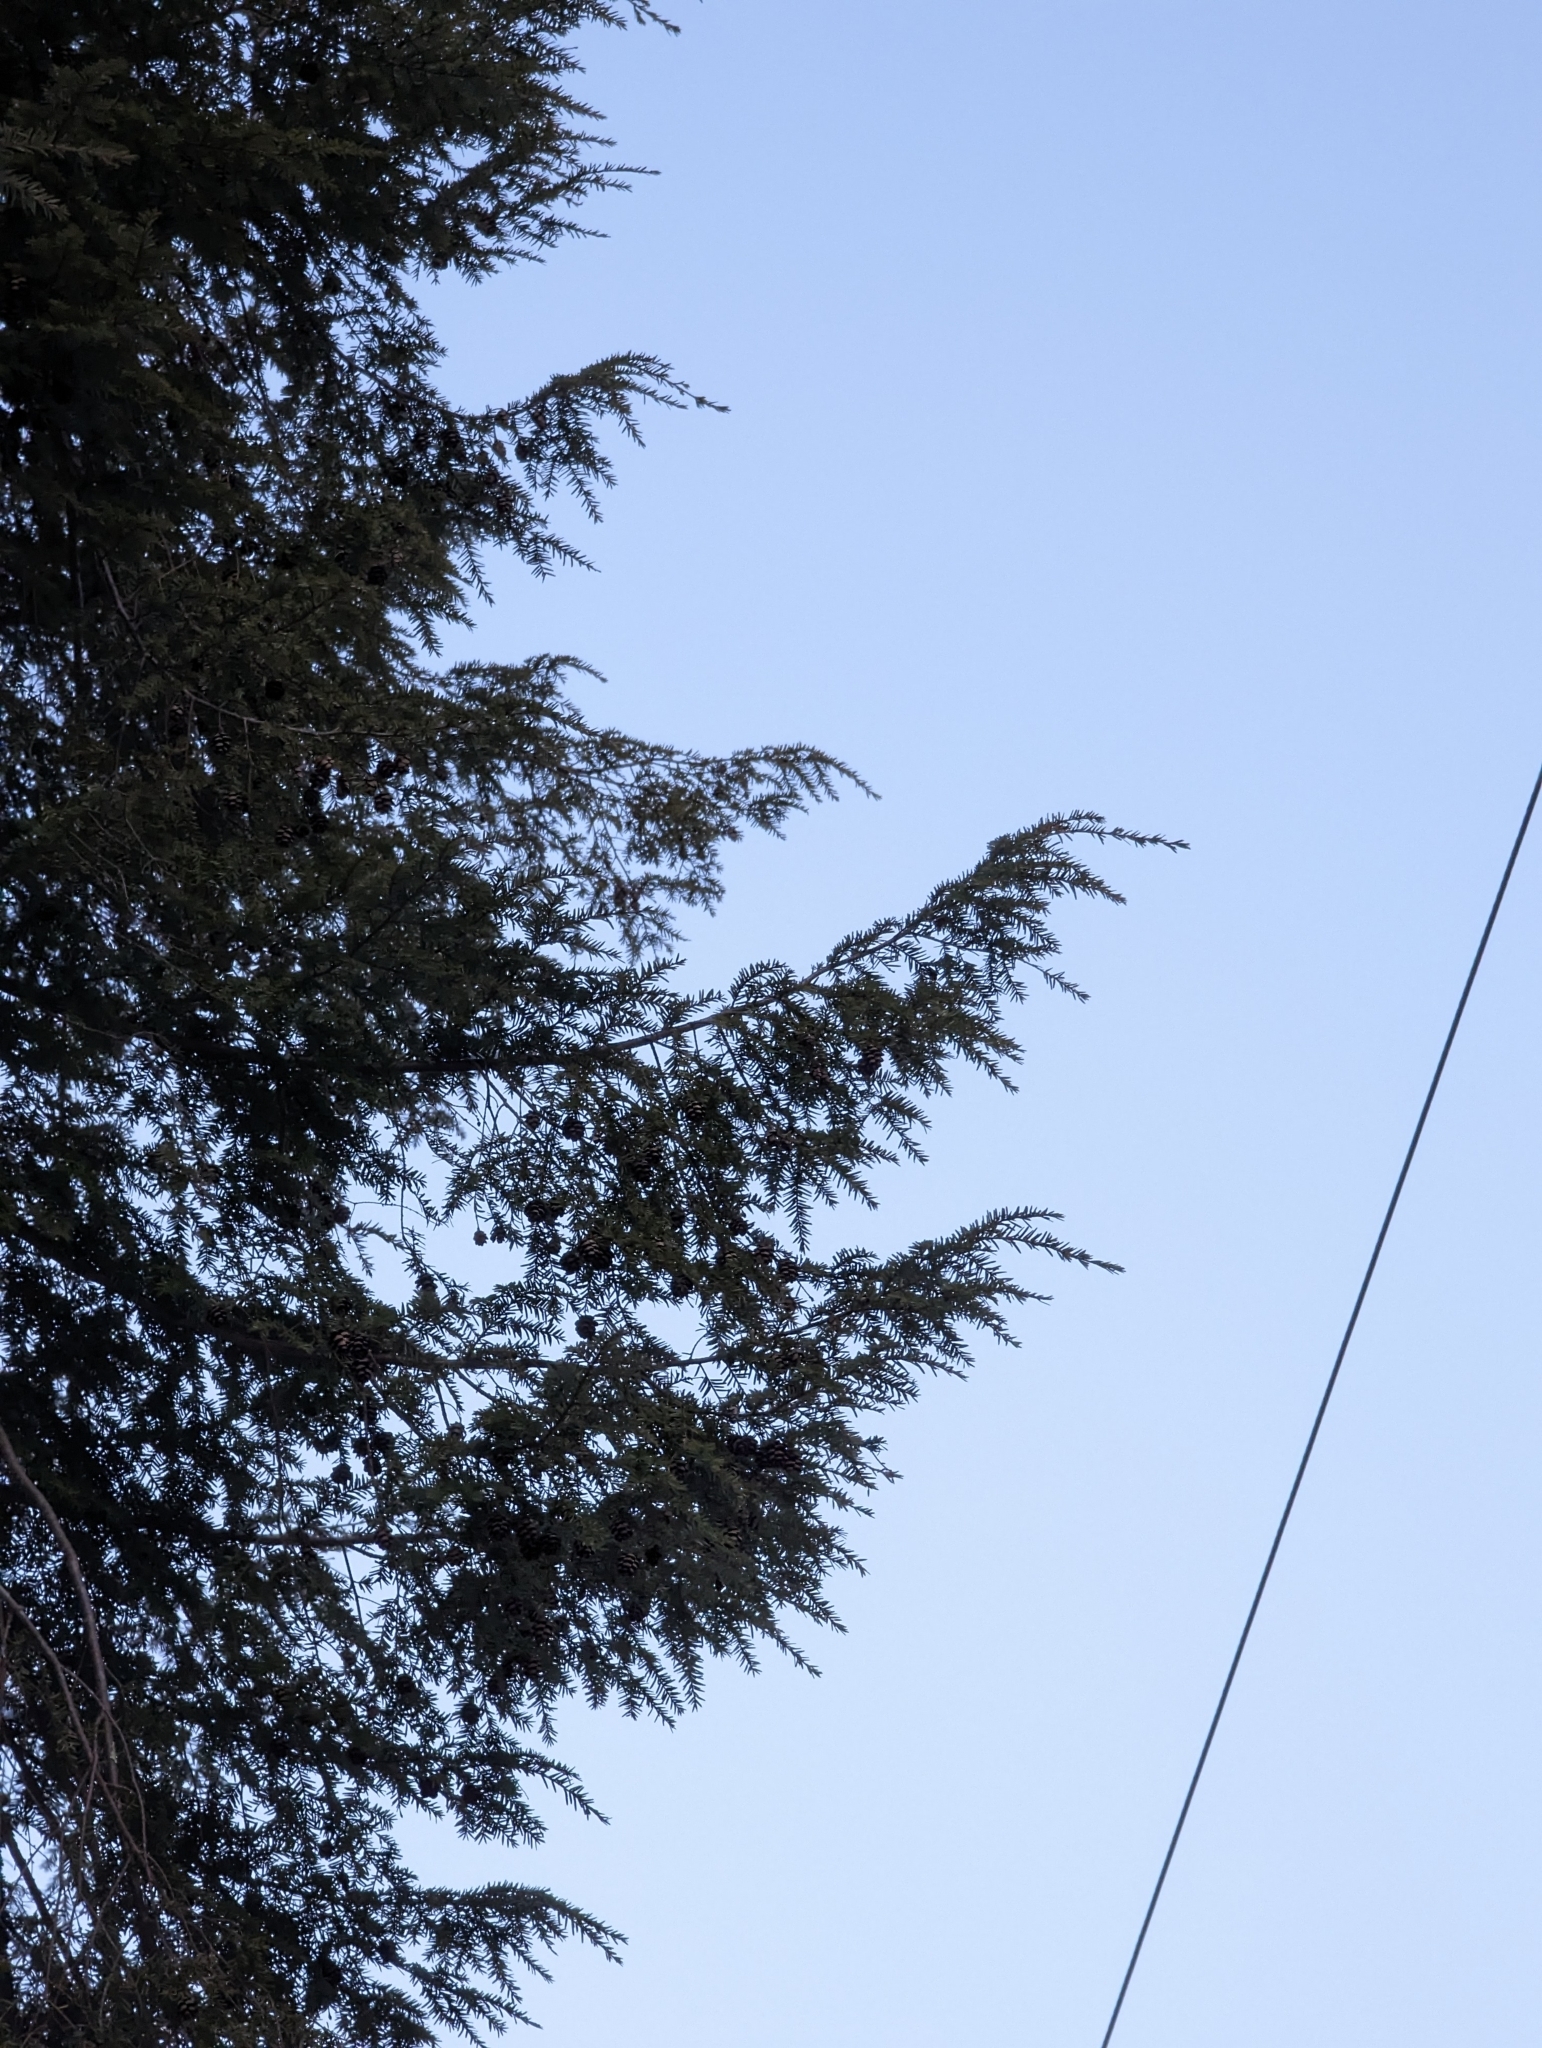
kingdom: Plantae
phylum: Tracheophyta
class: Pinopsida
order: Pinales
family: Pinaceae
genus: Tsuga
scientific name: Tsuga canadensis
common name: Eastern hemlock
